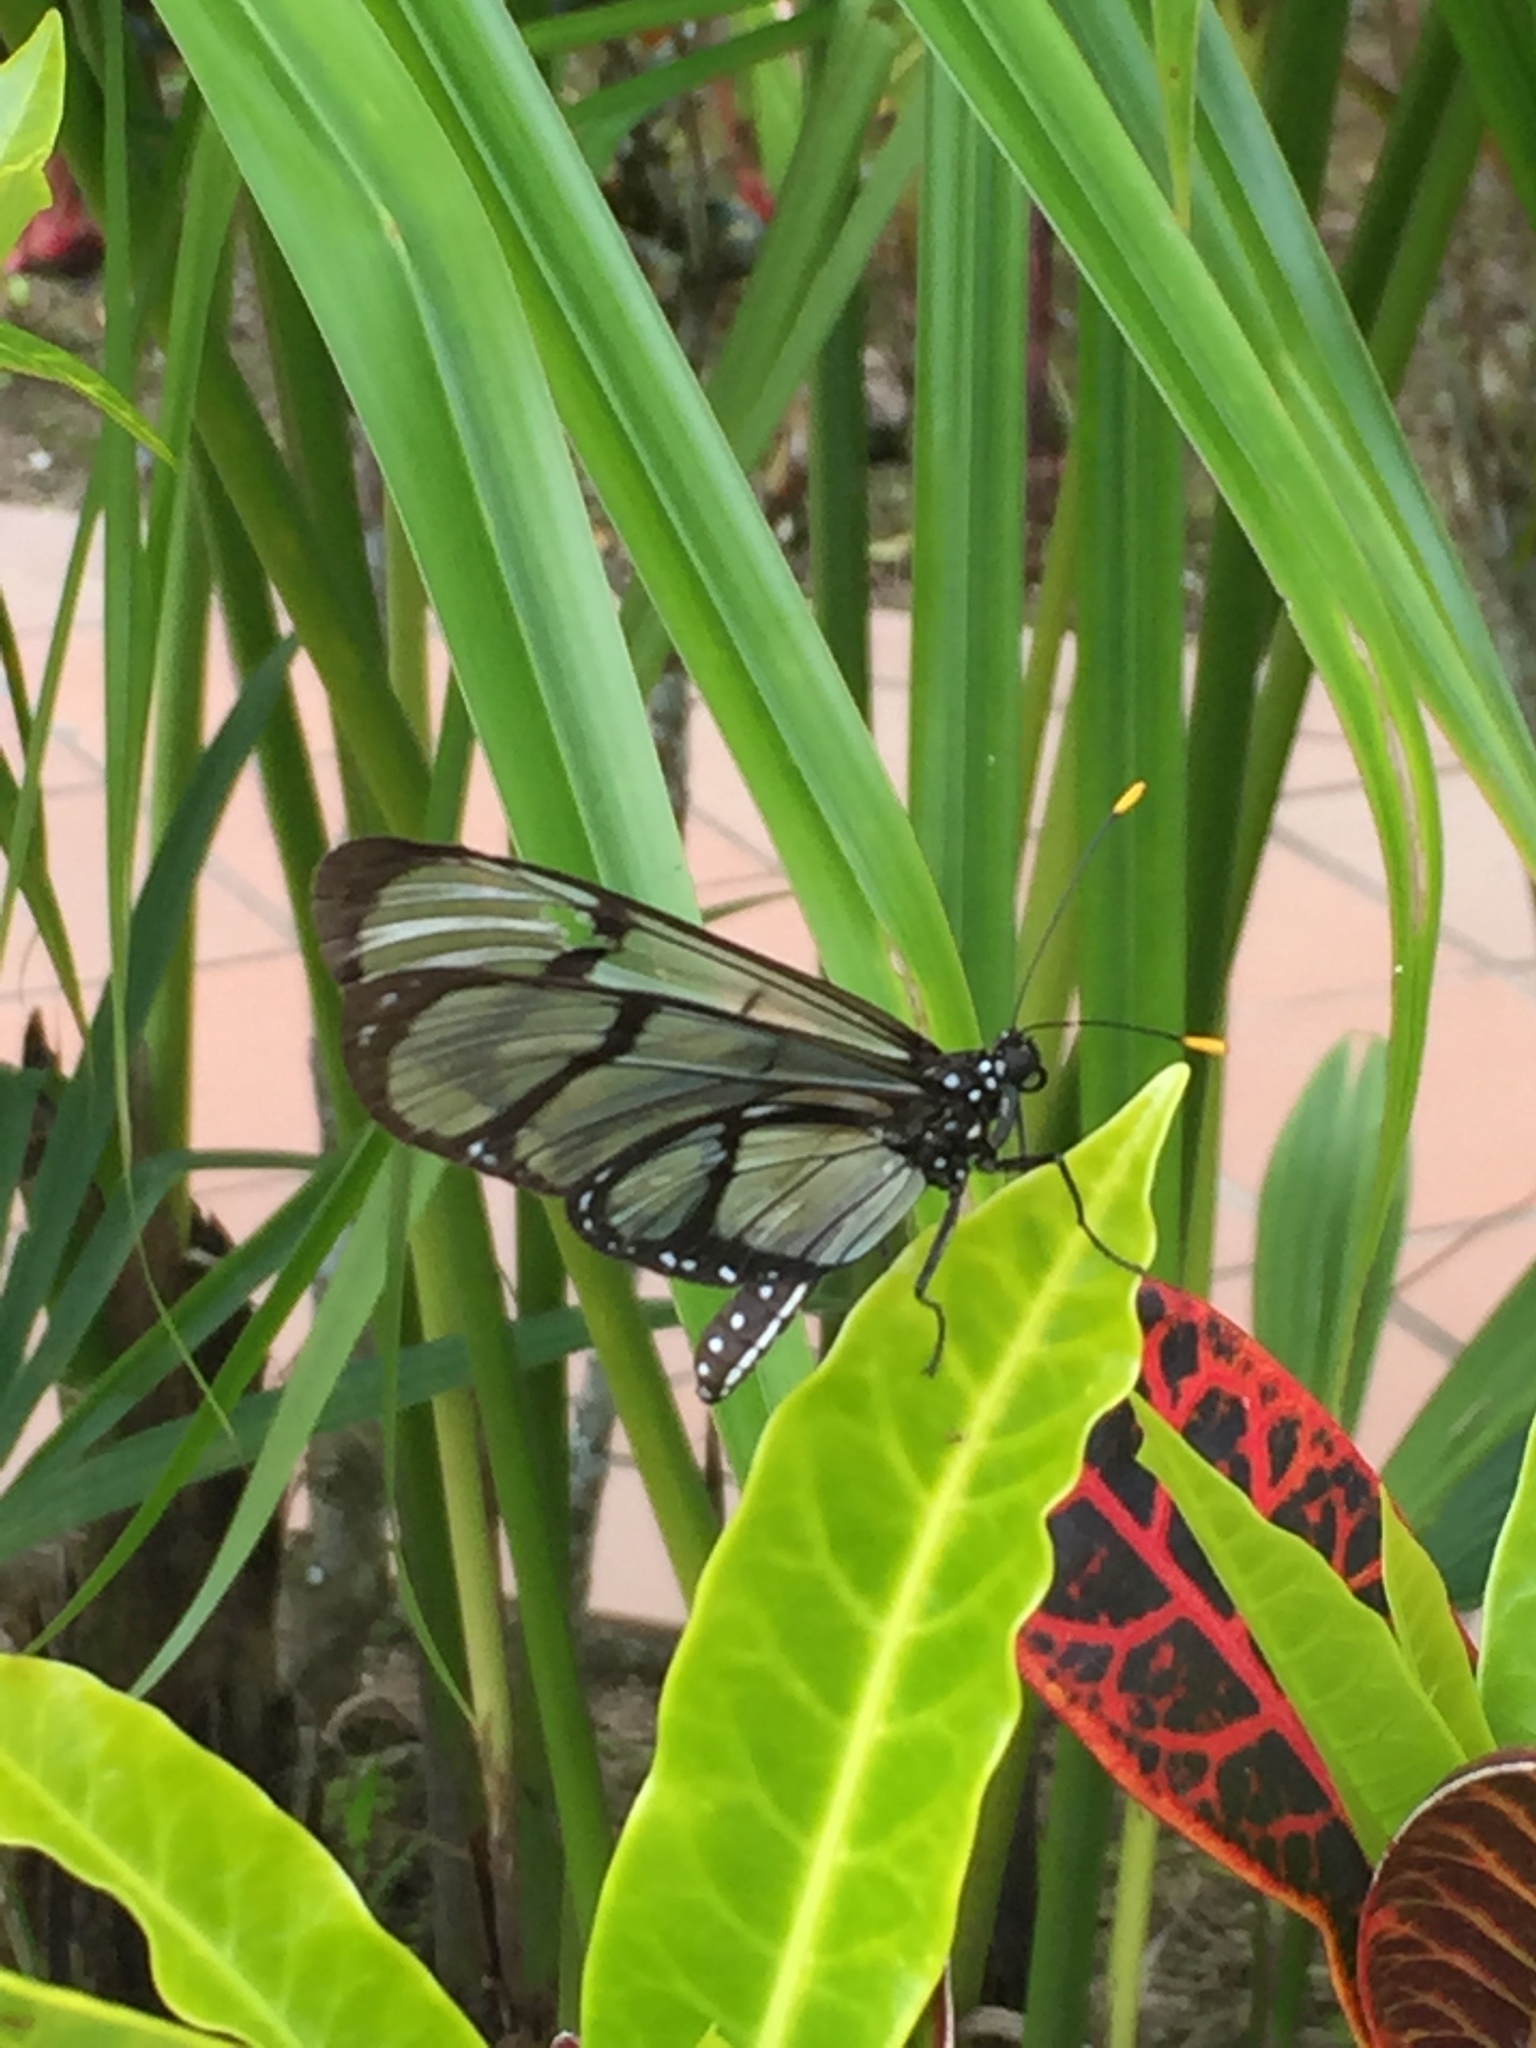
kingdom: Animalia
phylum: Arthropoda
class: Insecta
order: Lepidoptera
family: Nymphalidae
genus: Methona
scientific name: Methona confusa
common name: Confusa tigerwing
